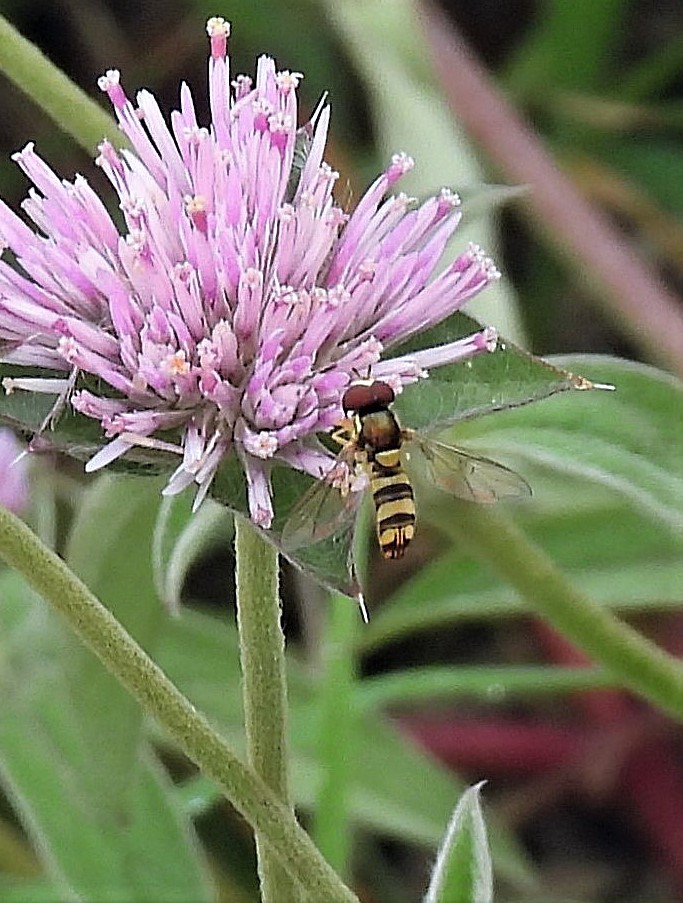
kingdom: Animalia
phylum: Arthropoda
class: Insecta
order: Diptera
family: Syrphidae
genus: Allograpta
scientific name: Allograpta exotica
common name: Syrphid fly
